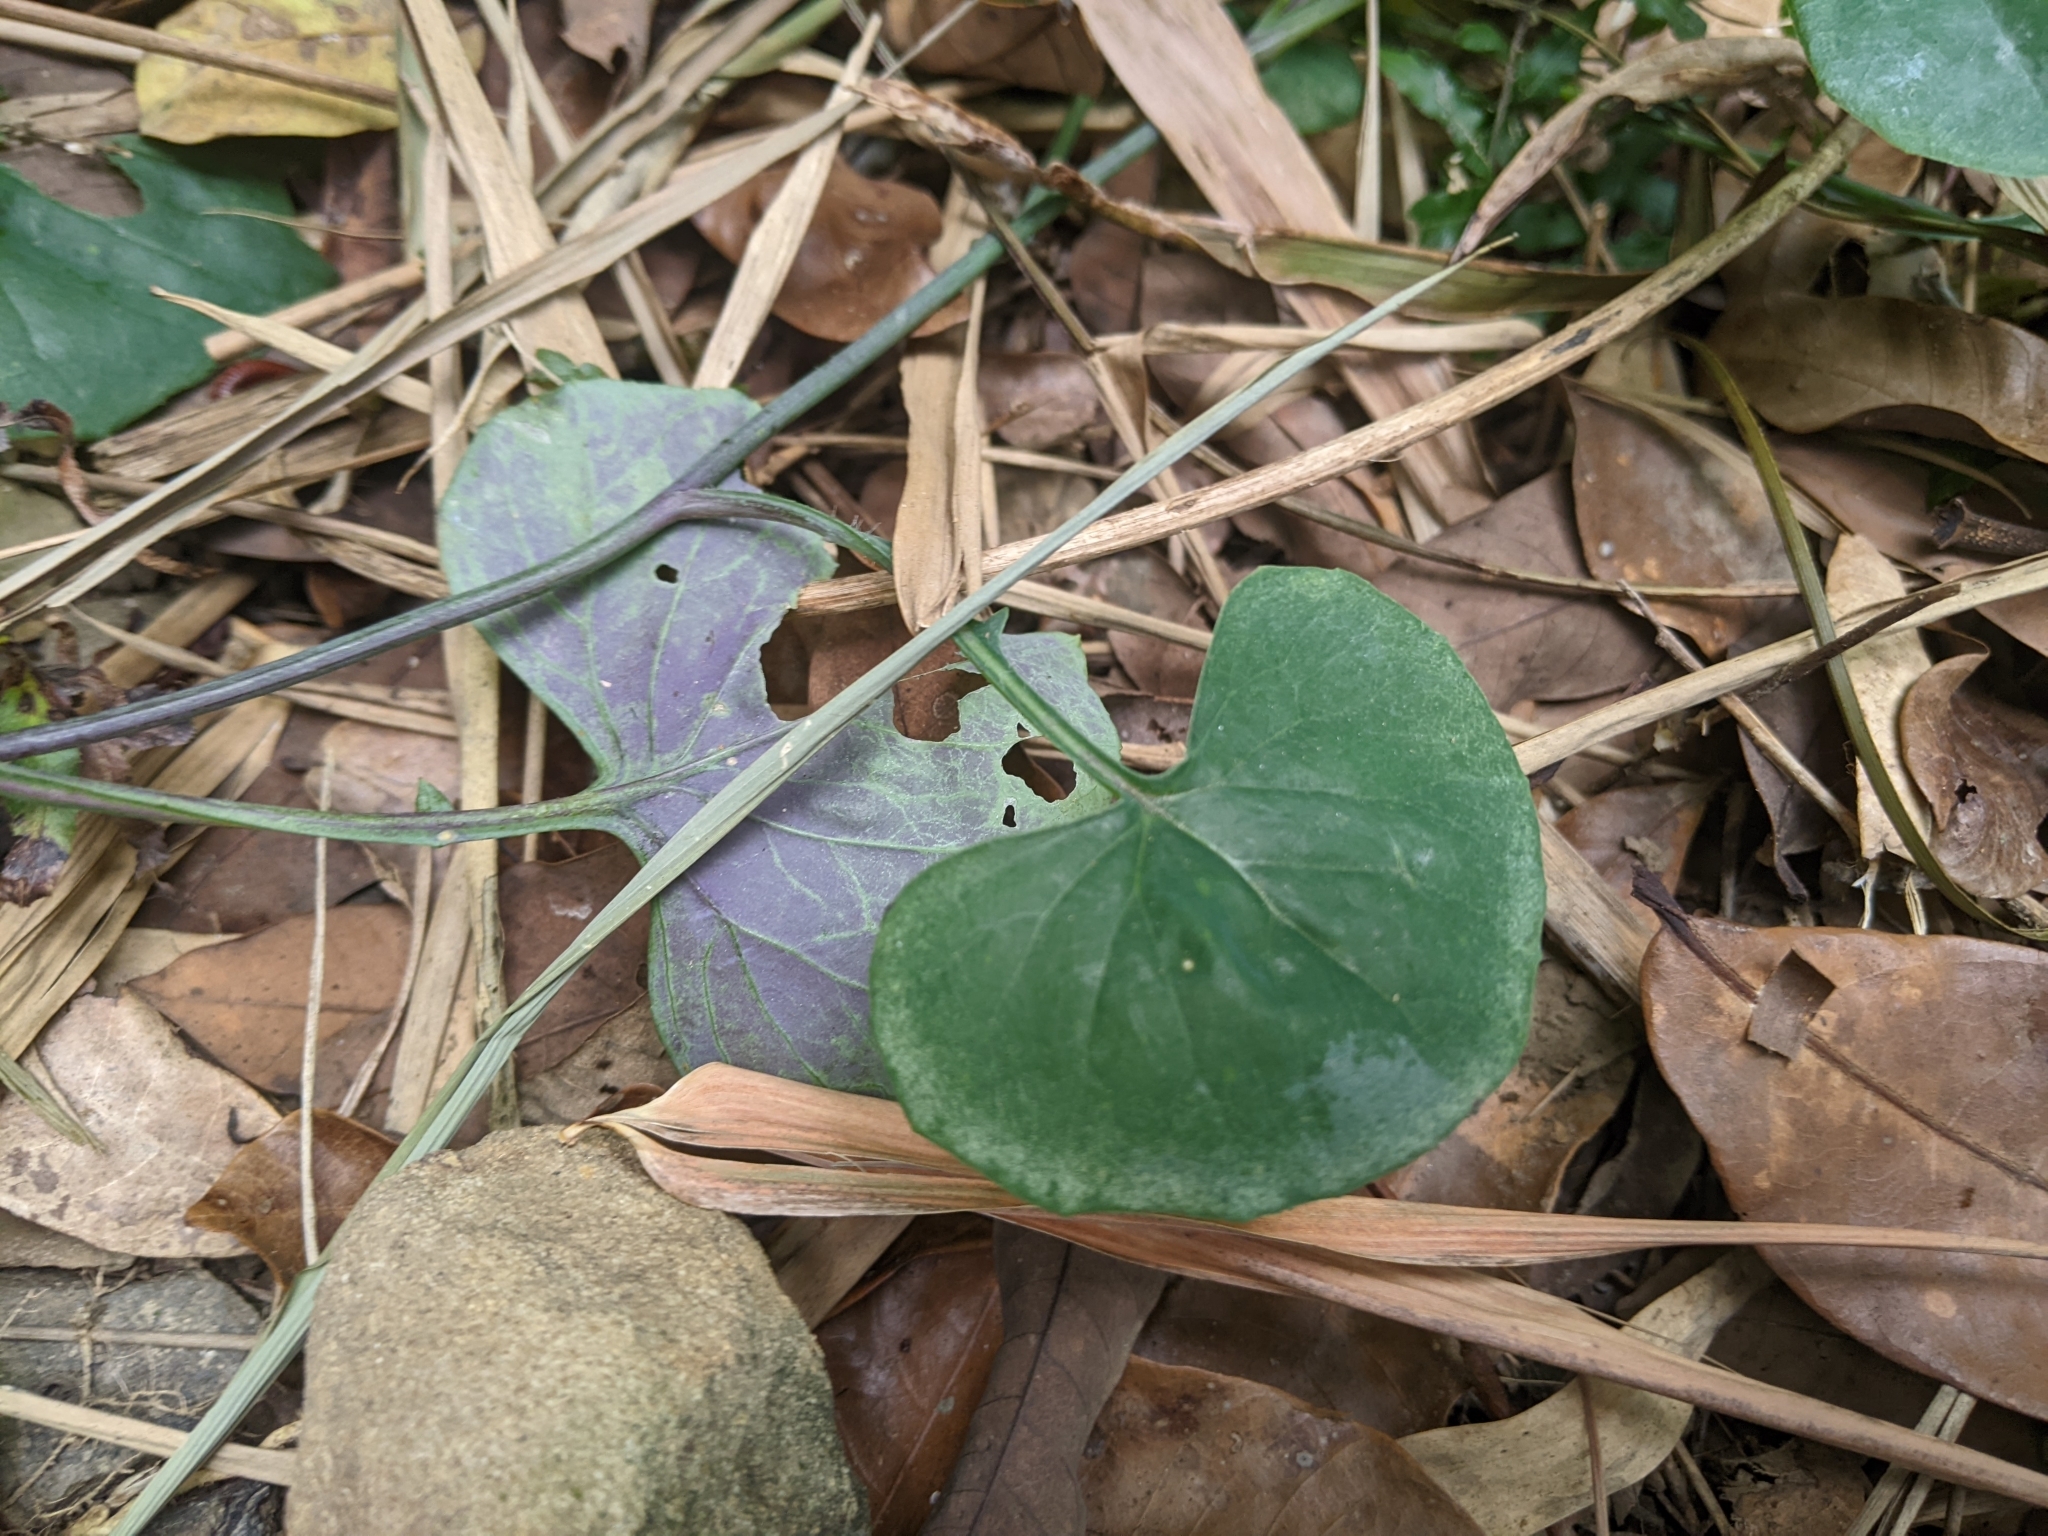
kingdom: Plantae
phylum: Tracheophyta
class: Magnoliopsida
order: Asterales
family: Asteraceae
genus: Emilia
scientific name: Emilia javanica
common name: Tassel-flower
